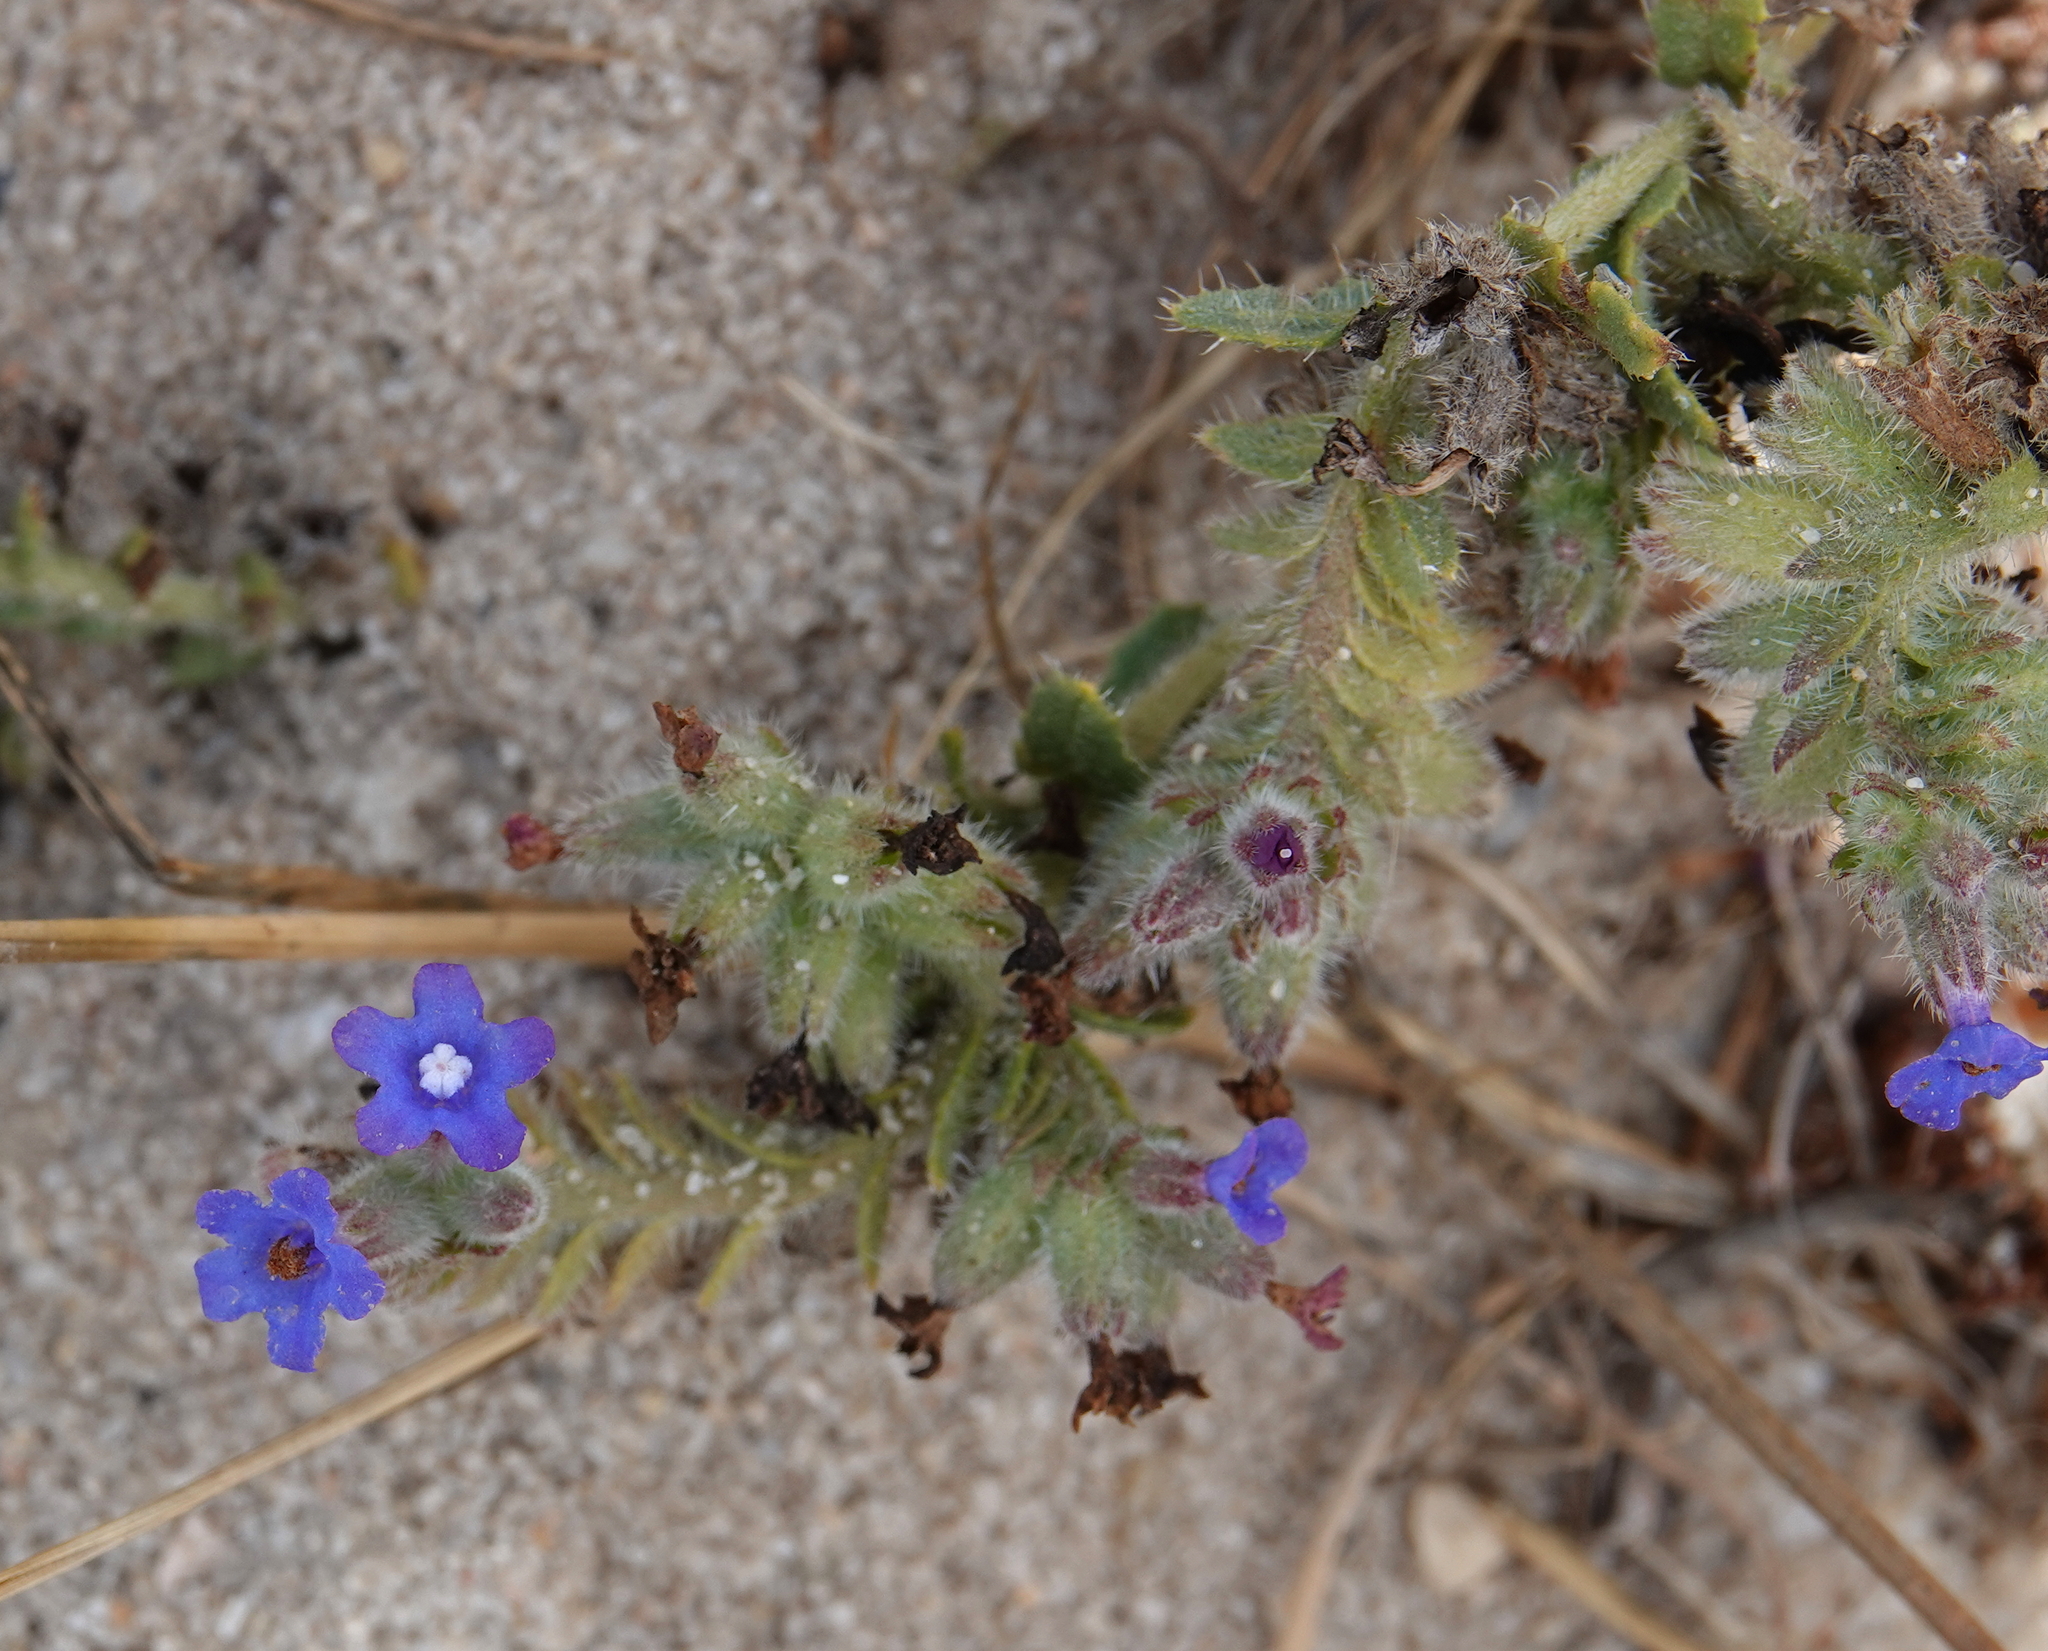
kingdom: Plantae
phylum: Tracheophyta
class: Magnoliopsida
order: Boraginales
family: Boraginaceae
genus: Anchusa
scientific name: Anchusa calcarea
